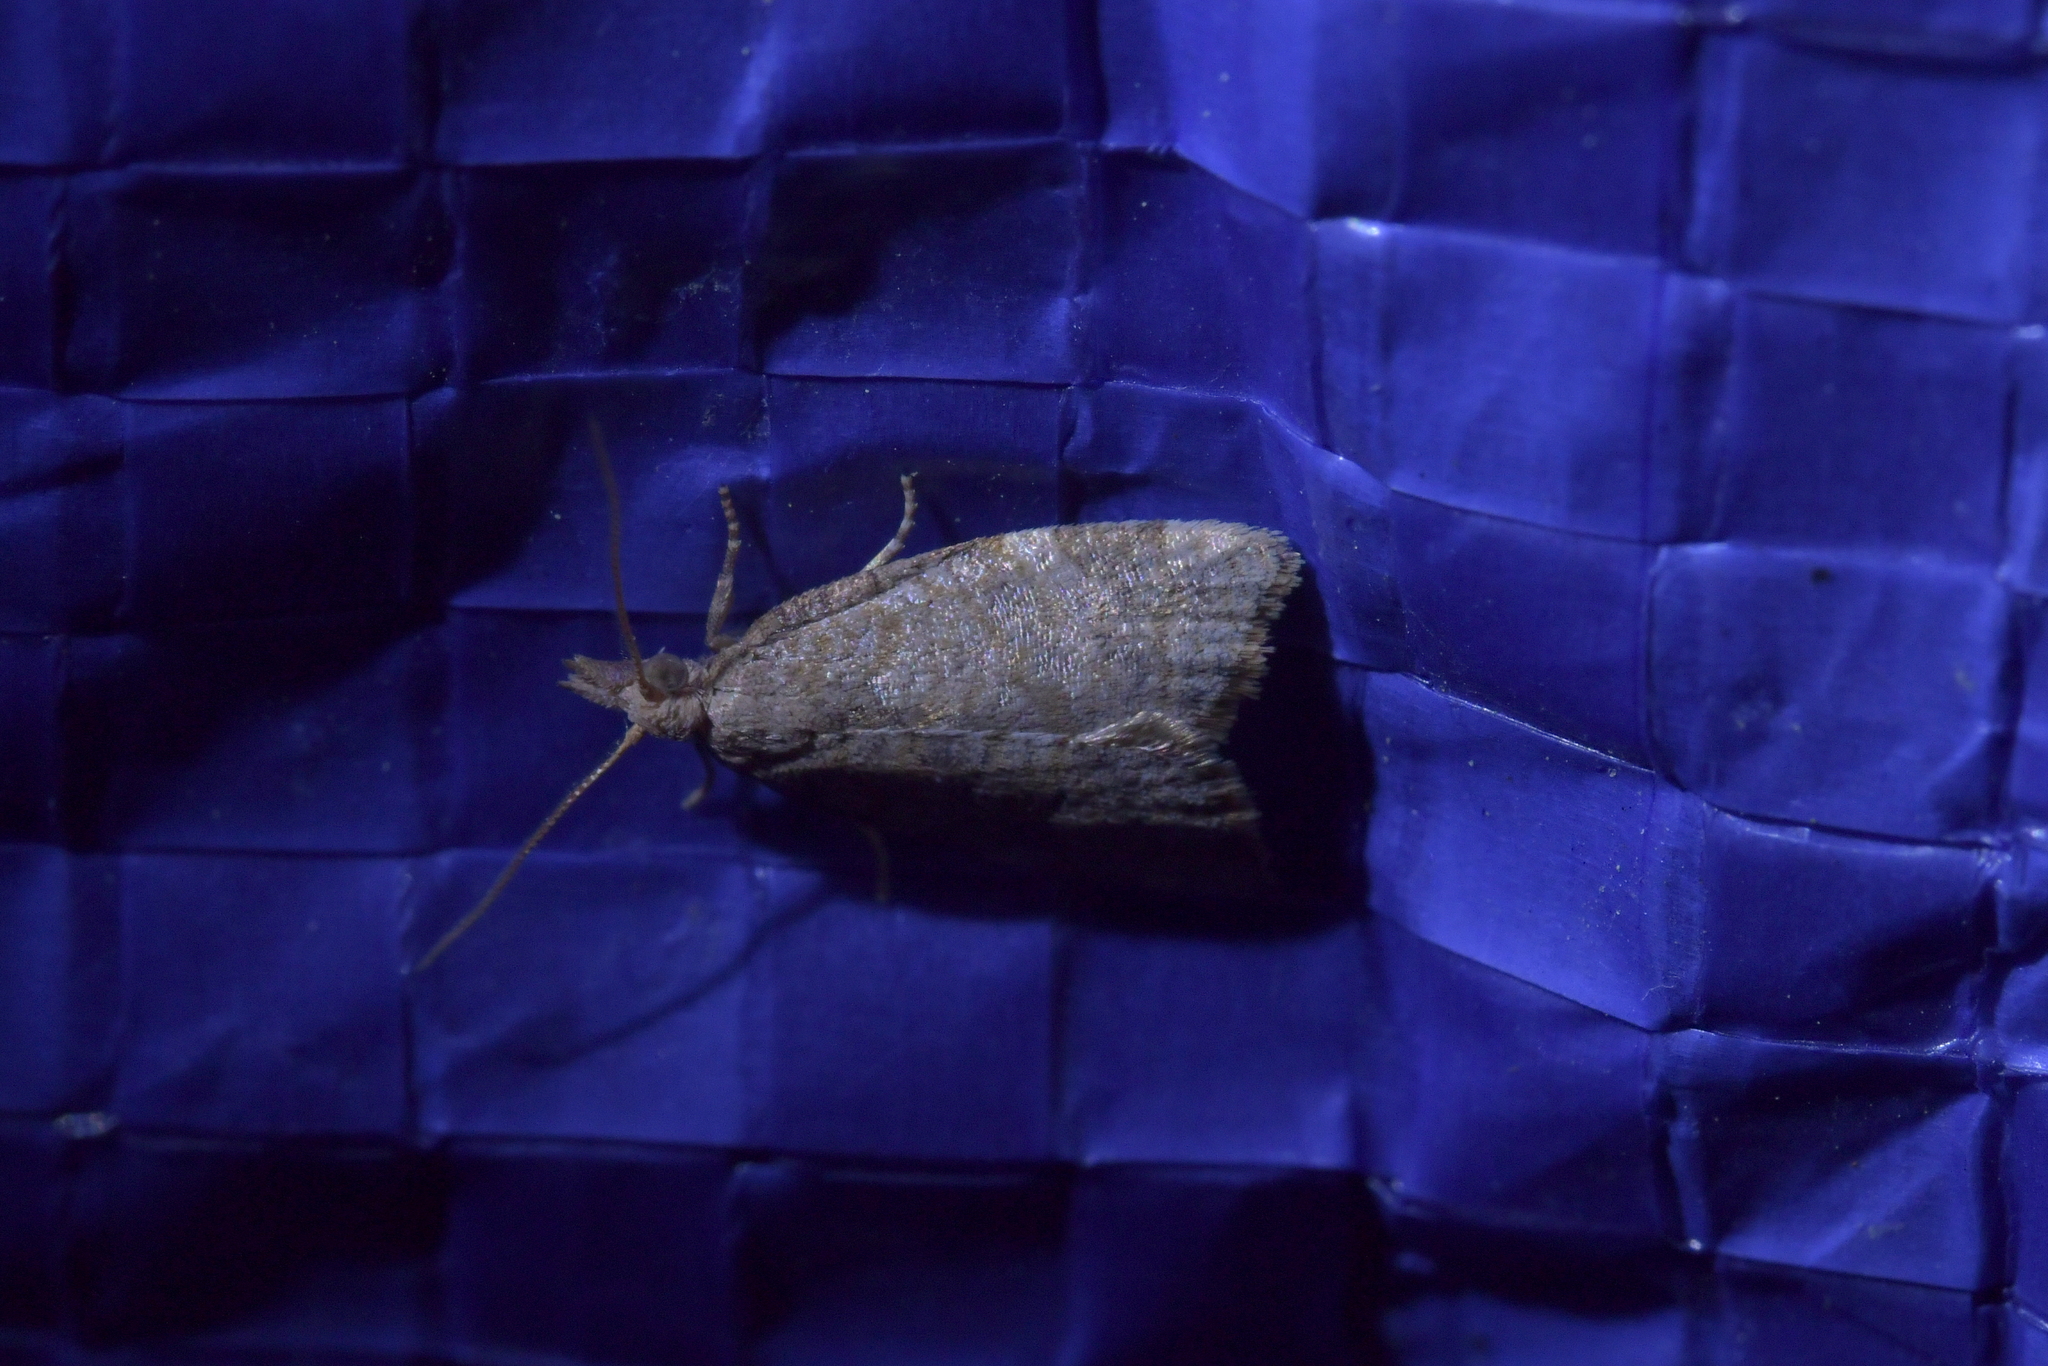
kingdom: Animalia
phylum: Arthropoda
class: Insecta
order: Lepidoptera
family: Tortricidae
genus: Catamacta
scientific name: Catamacta gavisana
